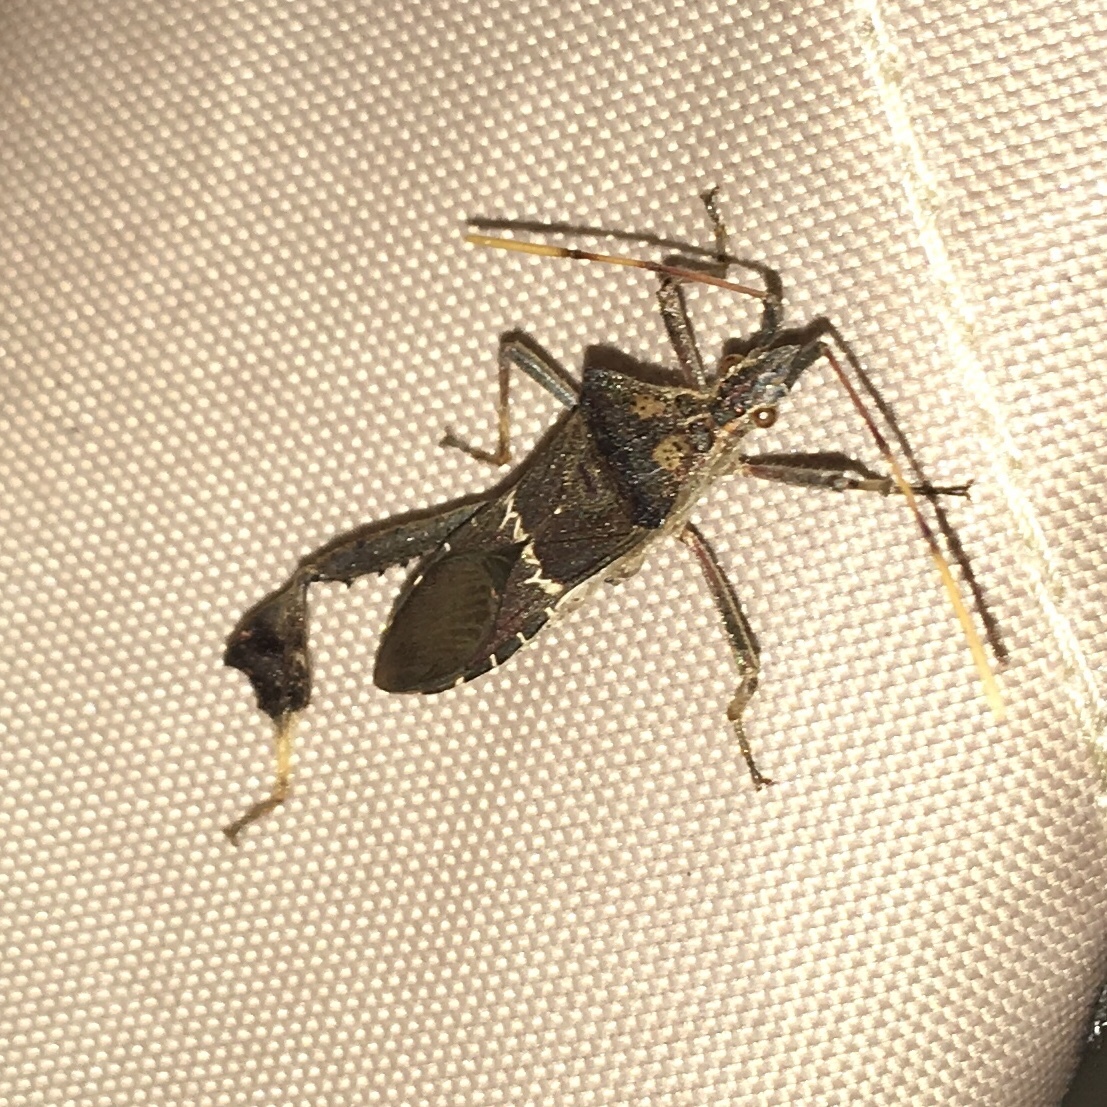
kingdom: Animalia
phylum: Arthropoda
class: Insecta
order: Hemiptera
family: Coreidae
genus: Leptoglossus
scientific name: Leptoglossus zonatus
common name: Large-legged bug
